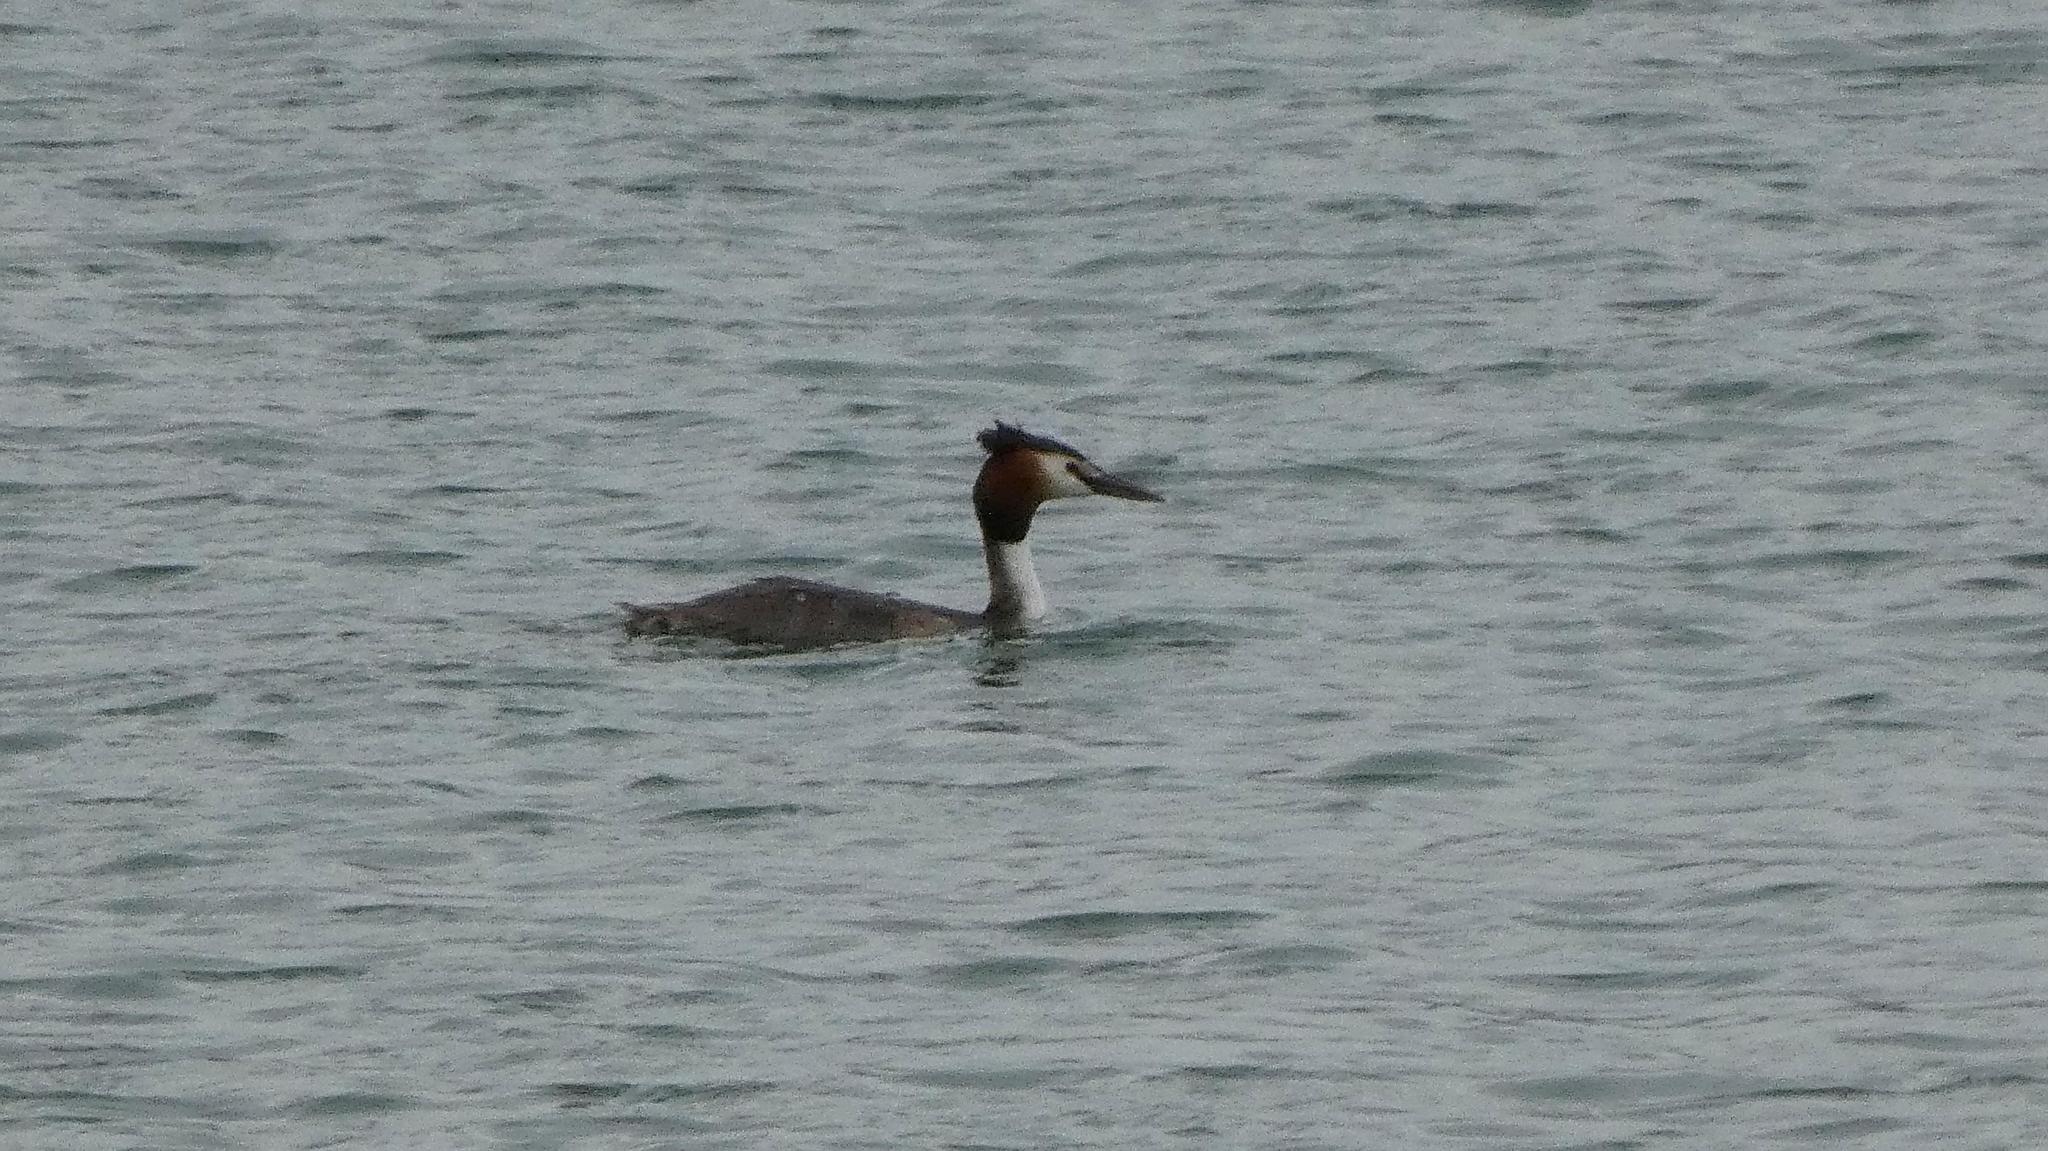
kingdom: Animalia
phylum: Chordata
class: Aves
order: Podicipediformes
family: Podicipedidae
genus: Podiceps
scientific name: Podiceps cristatus
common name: Great crested grebe
